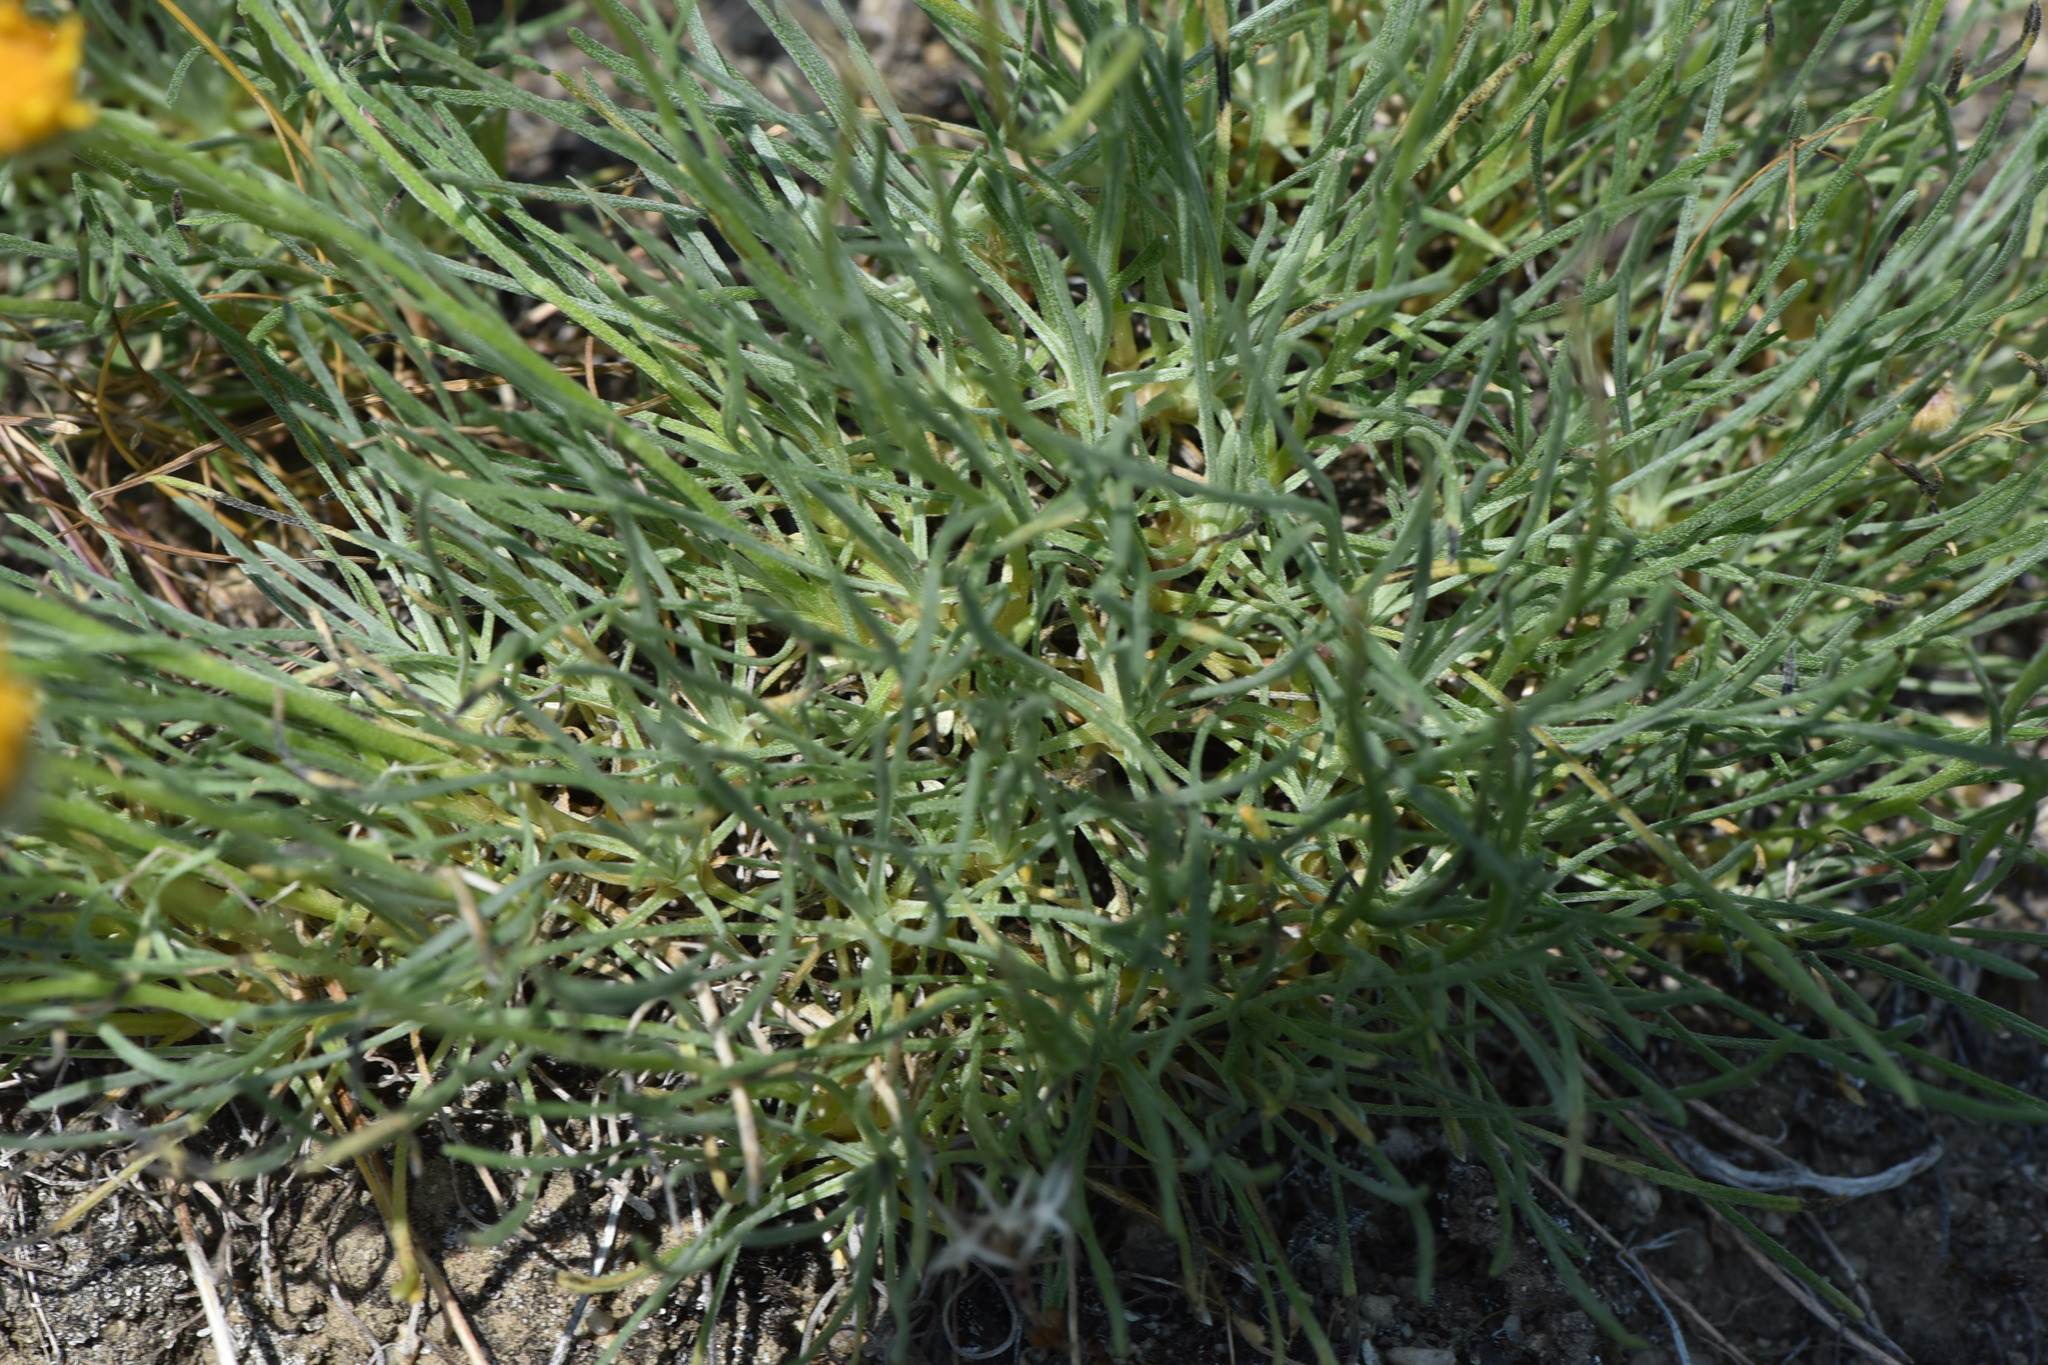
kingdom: Plantae
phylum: Tracheophyta
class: Magnoliopsida
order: Asterales
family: Asteraceae
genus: Erigeron
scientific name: Erigeron linearis
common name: Desert yellow fleabane
